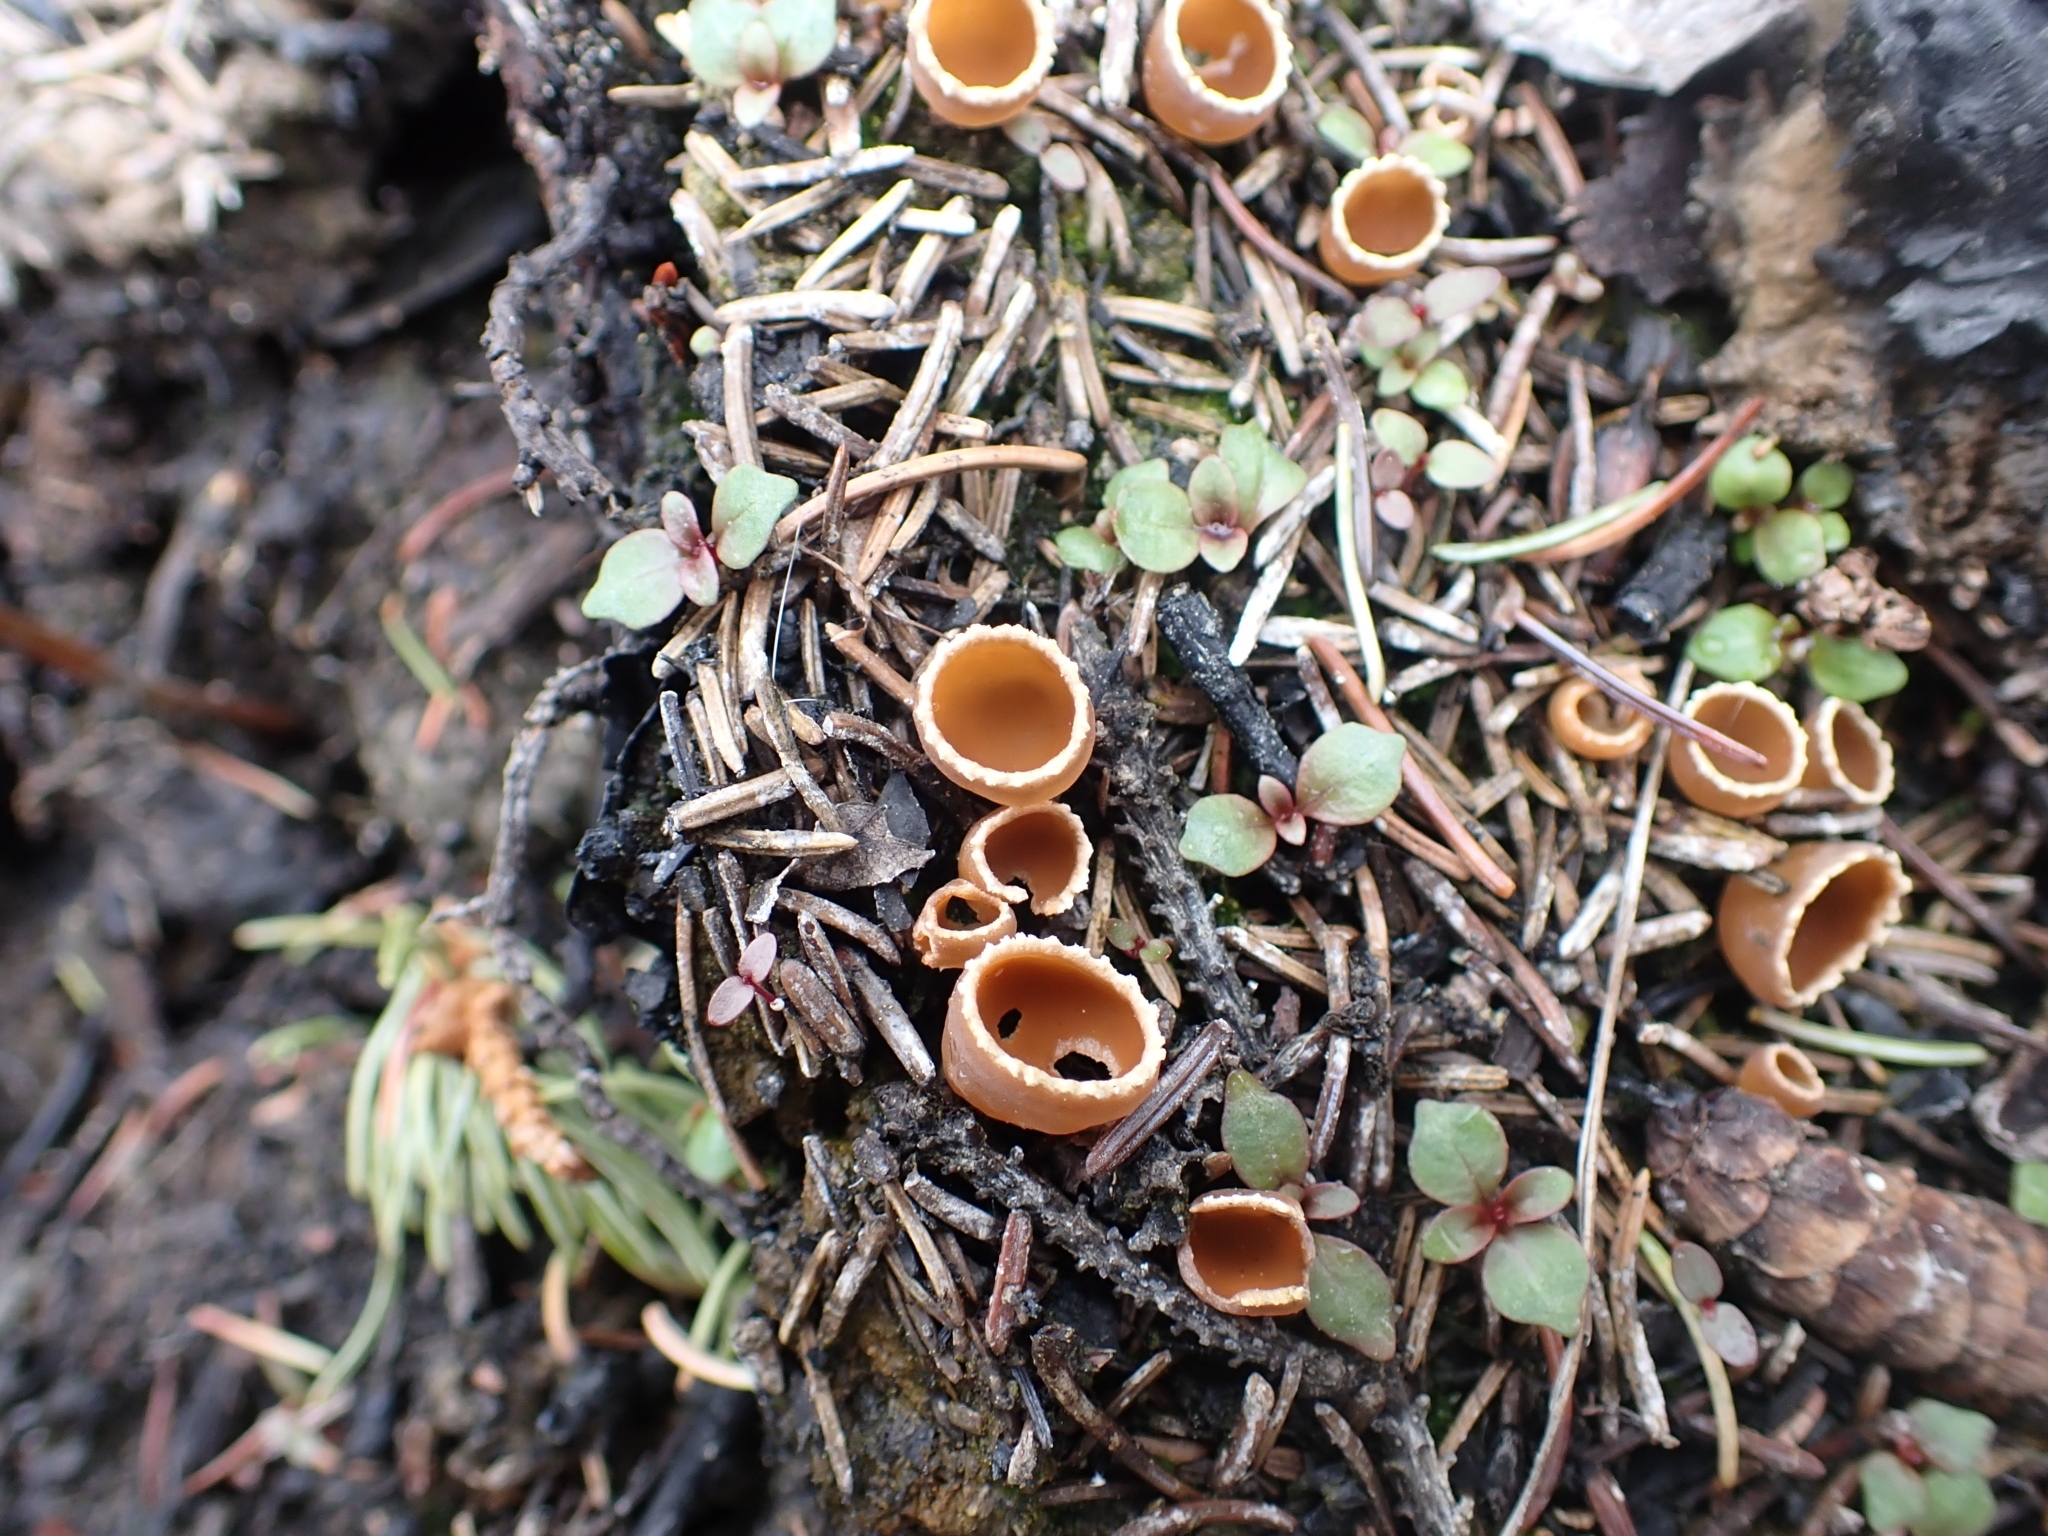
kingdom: Fungi
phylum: Ascomycota
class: Pezizomycetes
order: Pezizales
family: Pyronemataceae
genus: Geopyxis
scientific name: Geopyxis carbonaria
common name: Stalked bonfire cup
